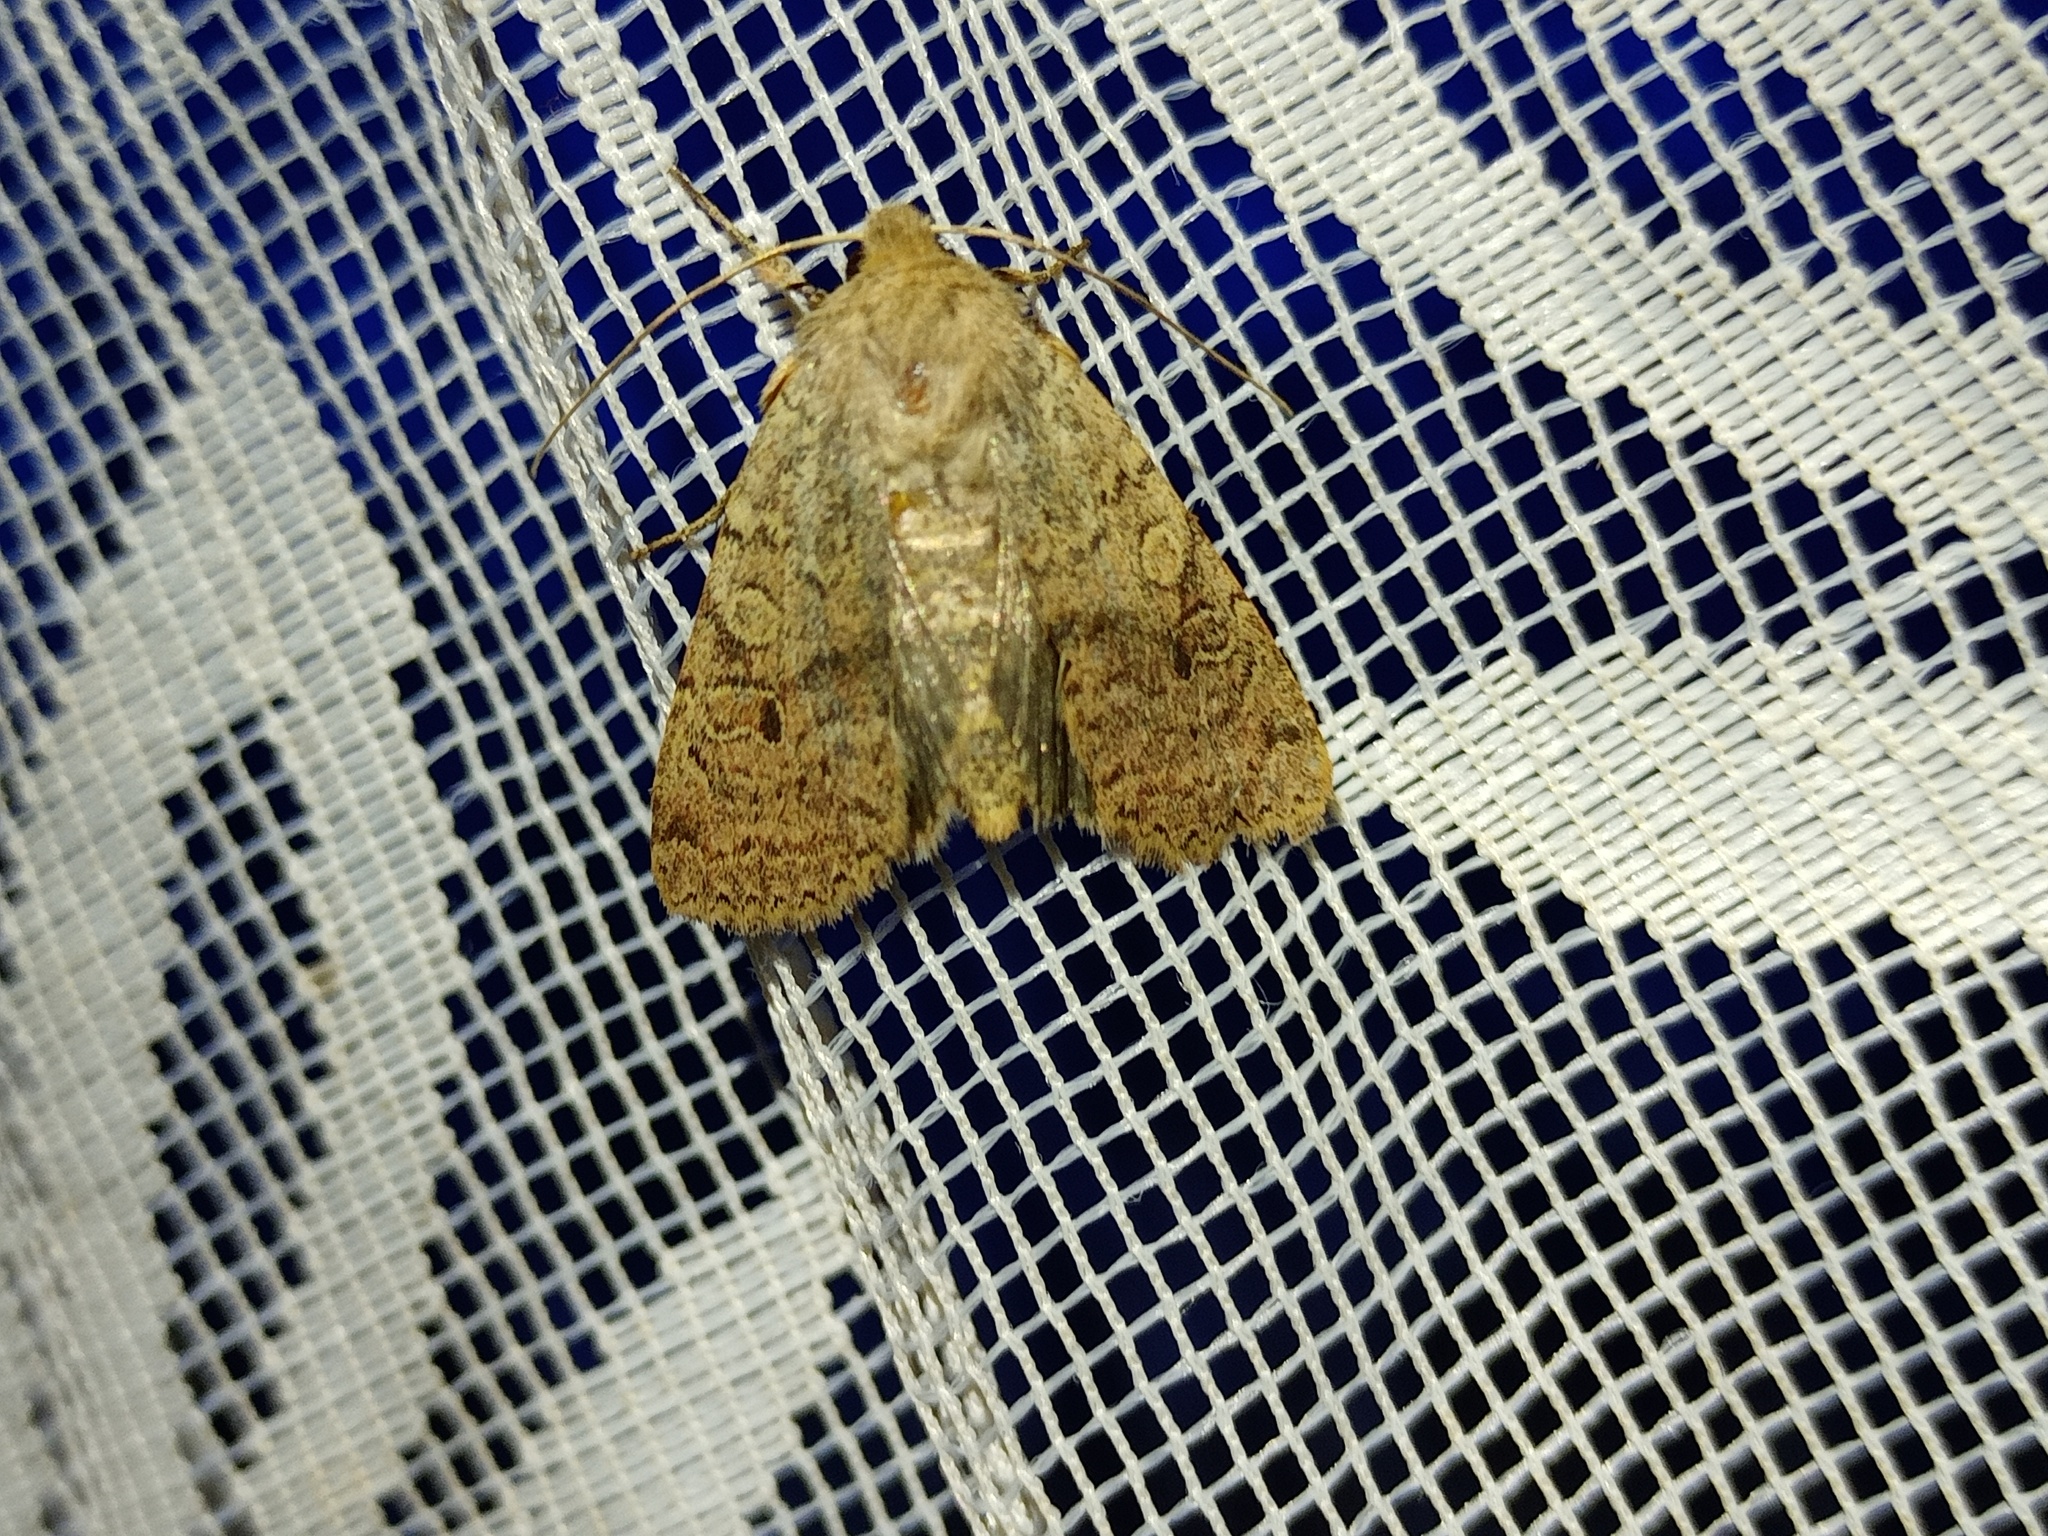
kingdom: Animalia
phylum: Arthropoda
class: Insecta
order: Lepidoptera
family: Noctuidae
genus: Agrochola
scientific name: Agrochola laevis
